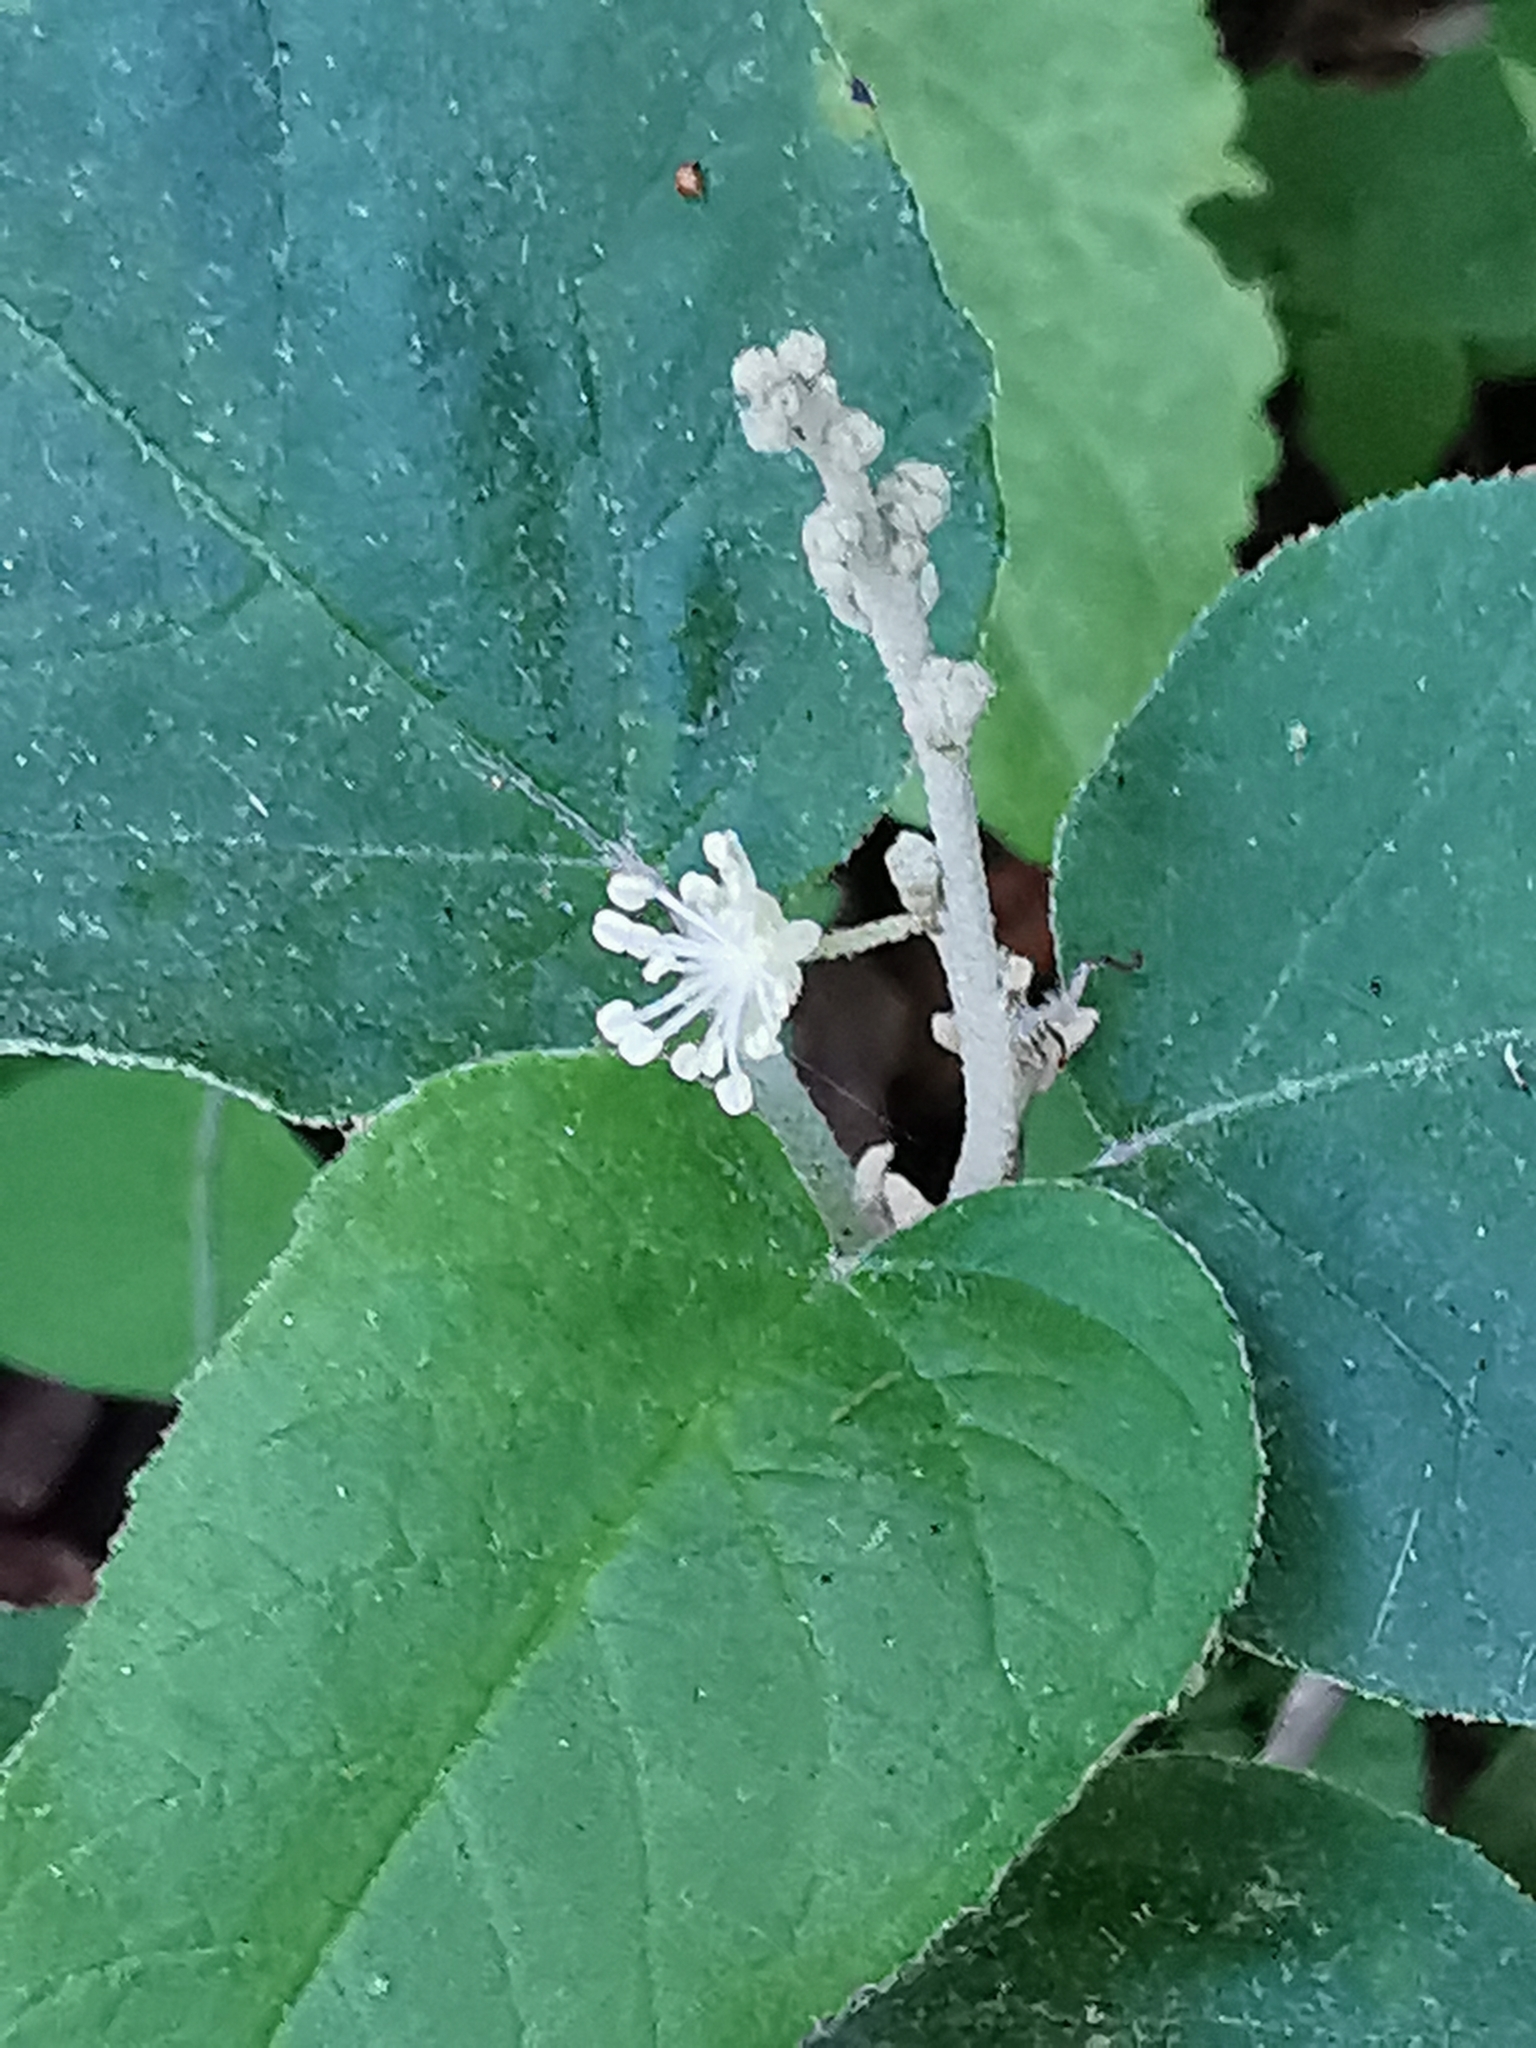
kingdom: Plantae
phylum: Tracheophyta
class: Magnoliopsida
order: Malpighiales
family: Euphorbiaceae
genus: Croton
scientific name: Croton fruticulosus
